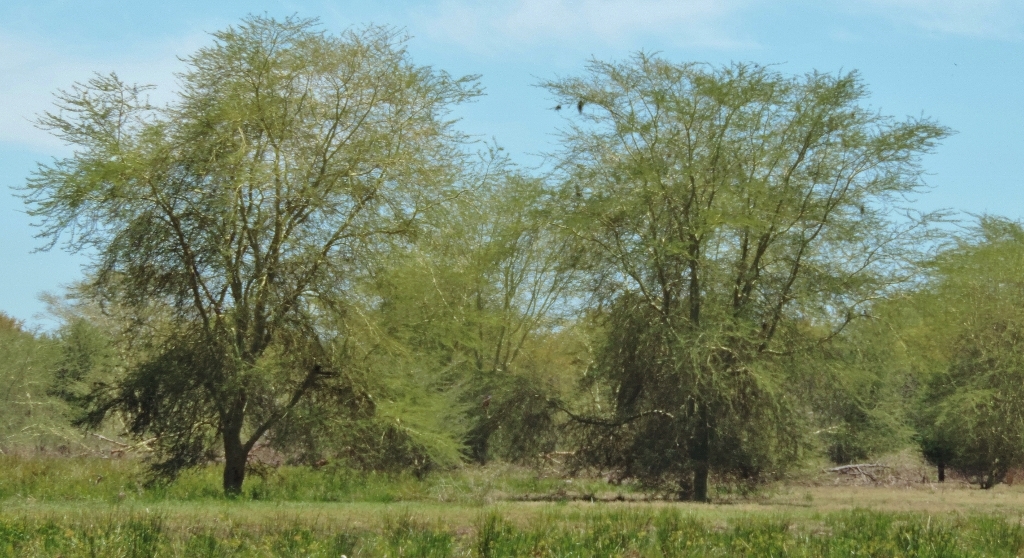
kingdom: Plantae
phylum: Tracheophyta
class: Magnoliopsida
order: Fabales
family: Fabaceae
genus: Vachellia
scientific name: Vachellia xanthophloea
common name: Fever tree
